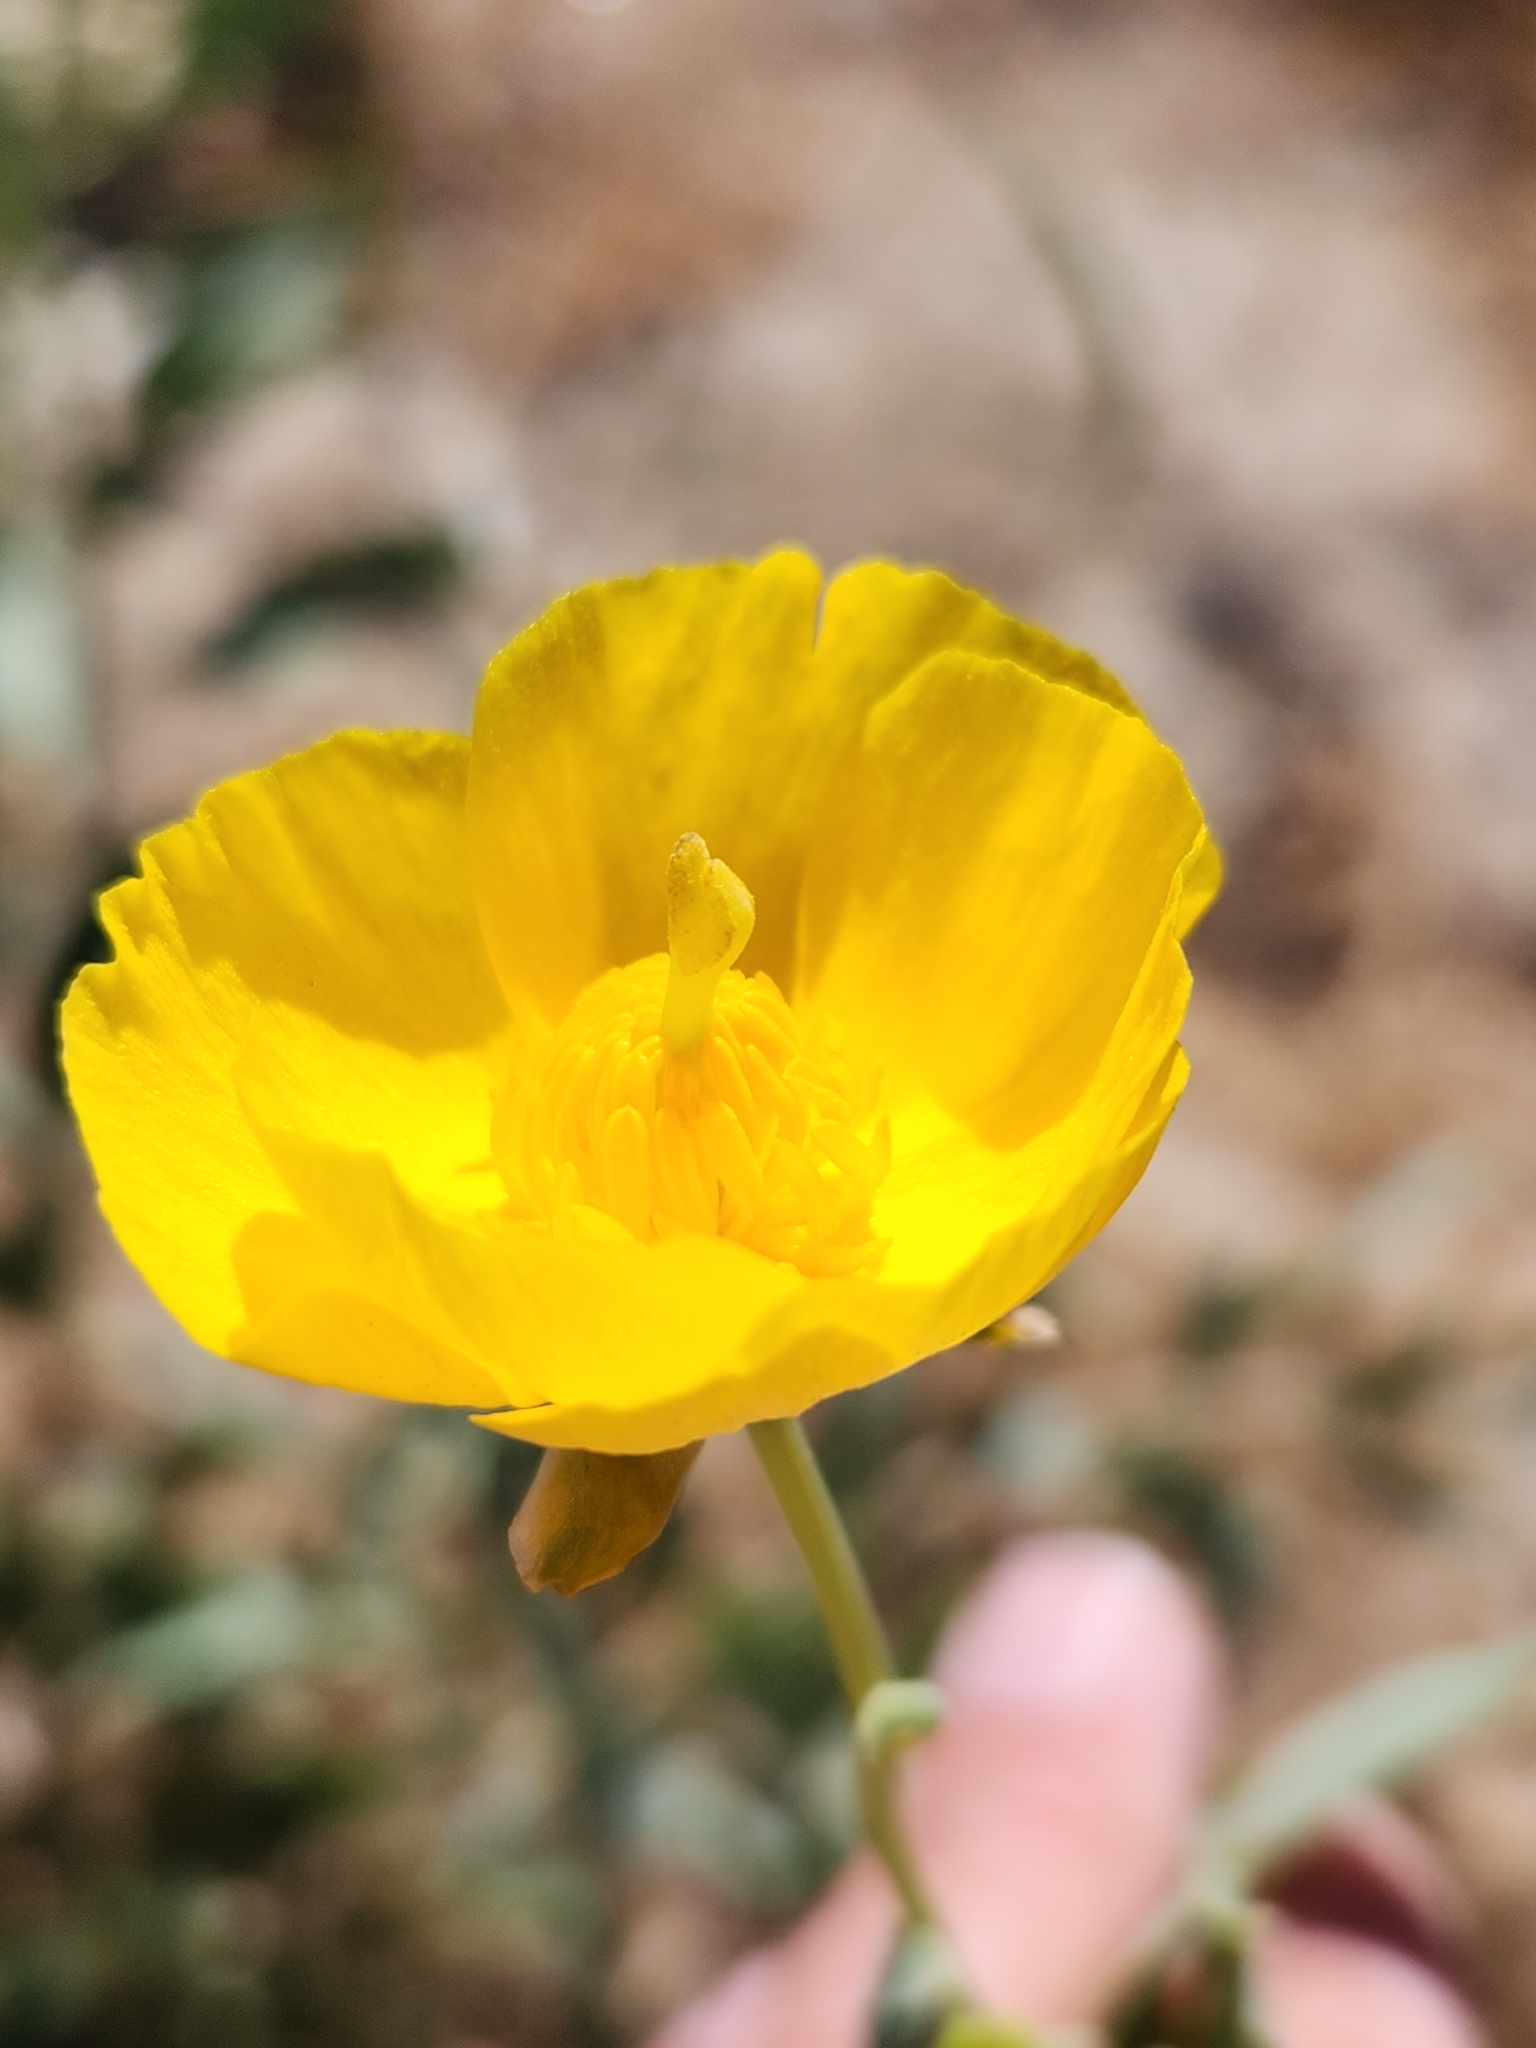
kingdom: Plantae
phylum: Tracheophyta
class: Magnoliopsida
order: Ranunculales
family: Papaveraceae
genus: Dendromecon
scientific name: Dendromecon rigida
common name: Tree poppy
